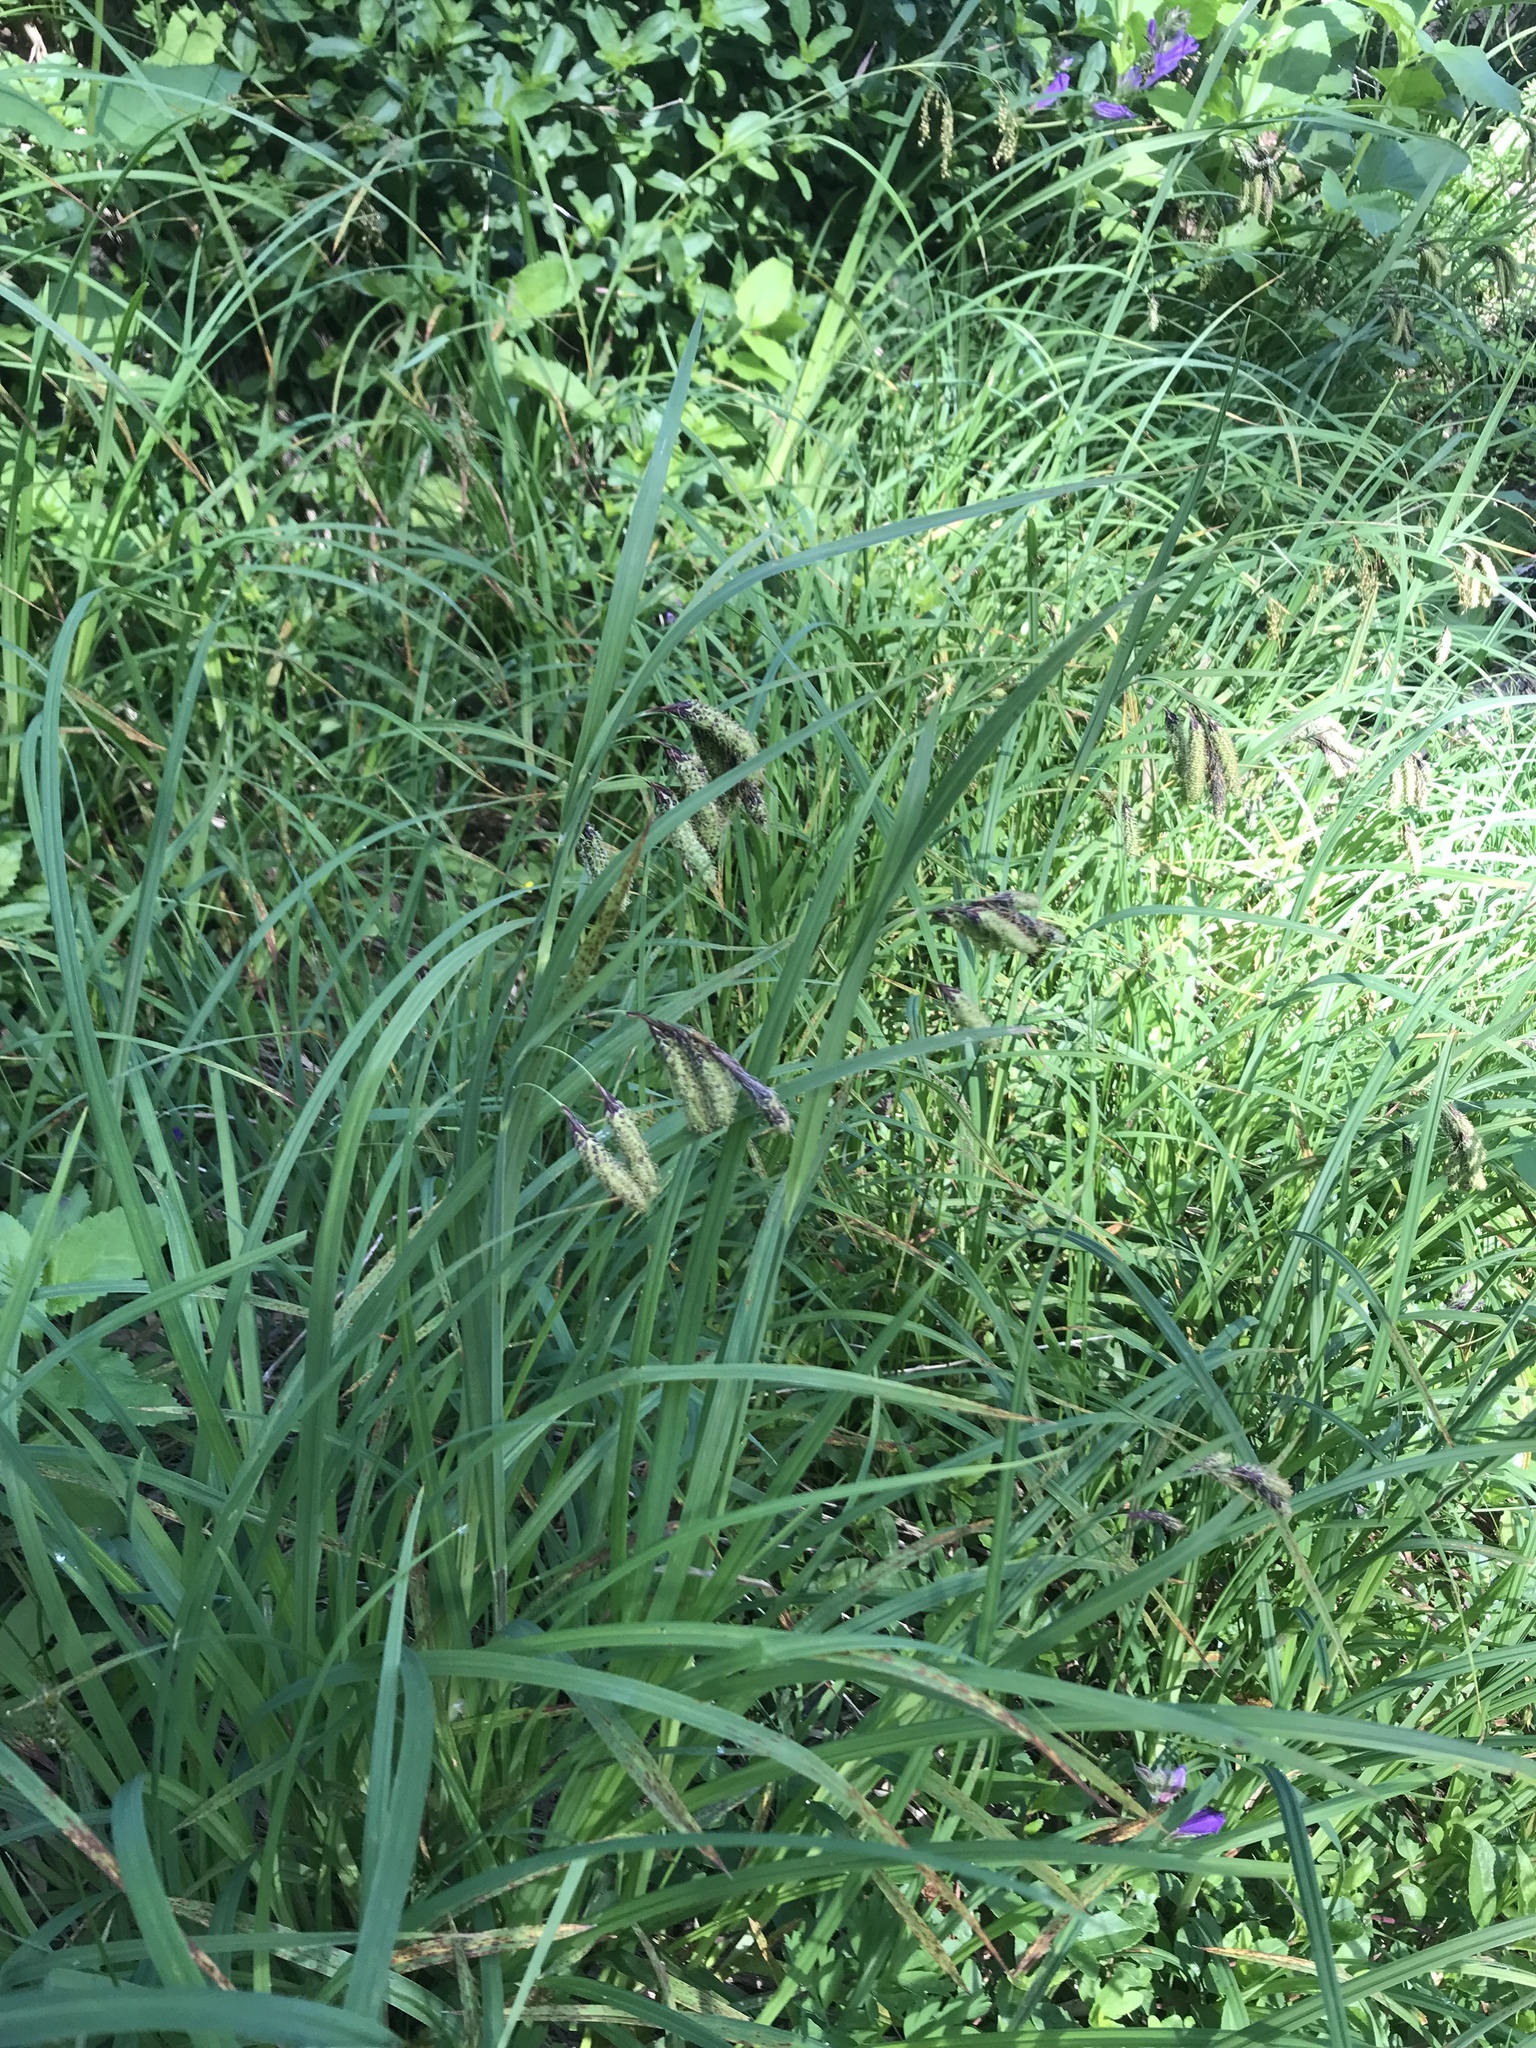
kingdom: Plantae
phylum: Tracheophyta
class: Liliopsida
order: Poales
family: Cyperaceae
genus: Carex
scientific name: Carex mertensii
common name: Mertens' sedge
